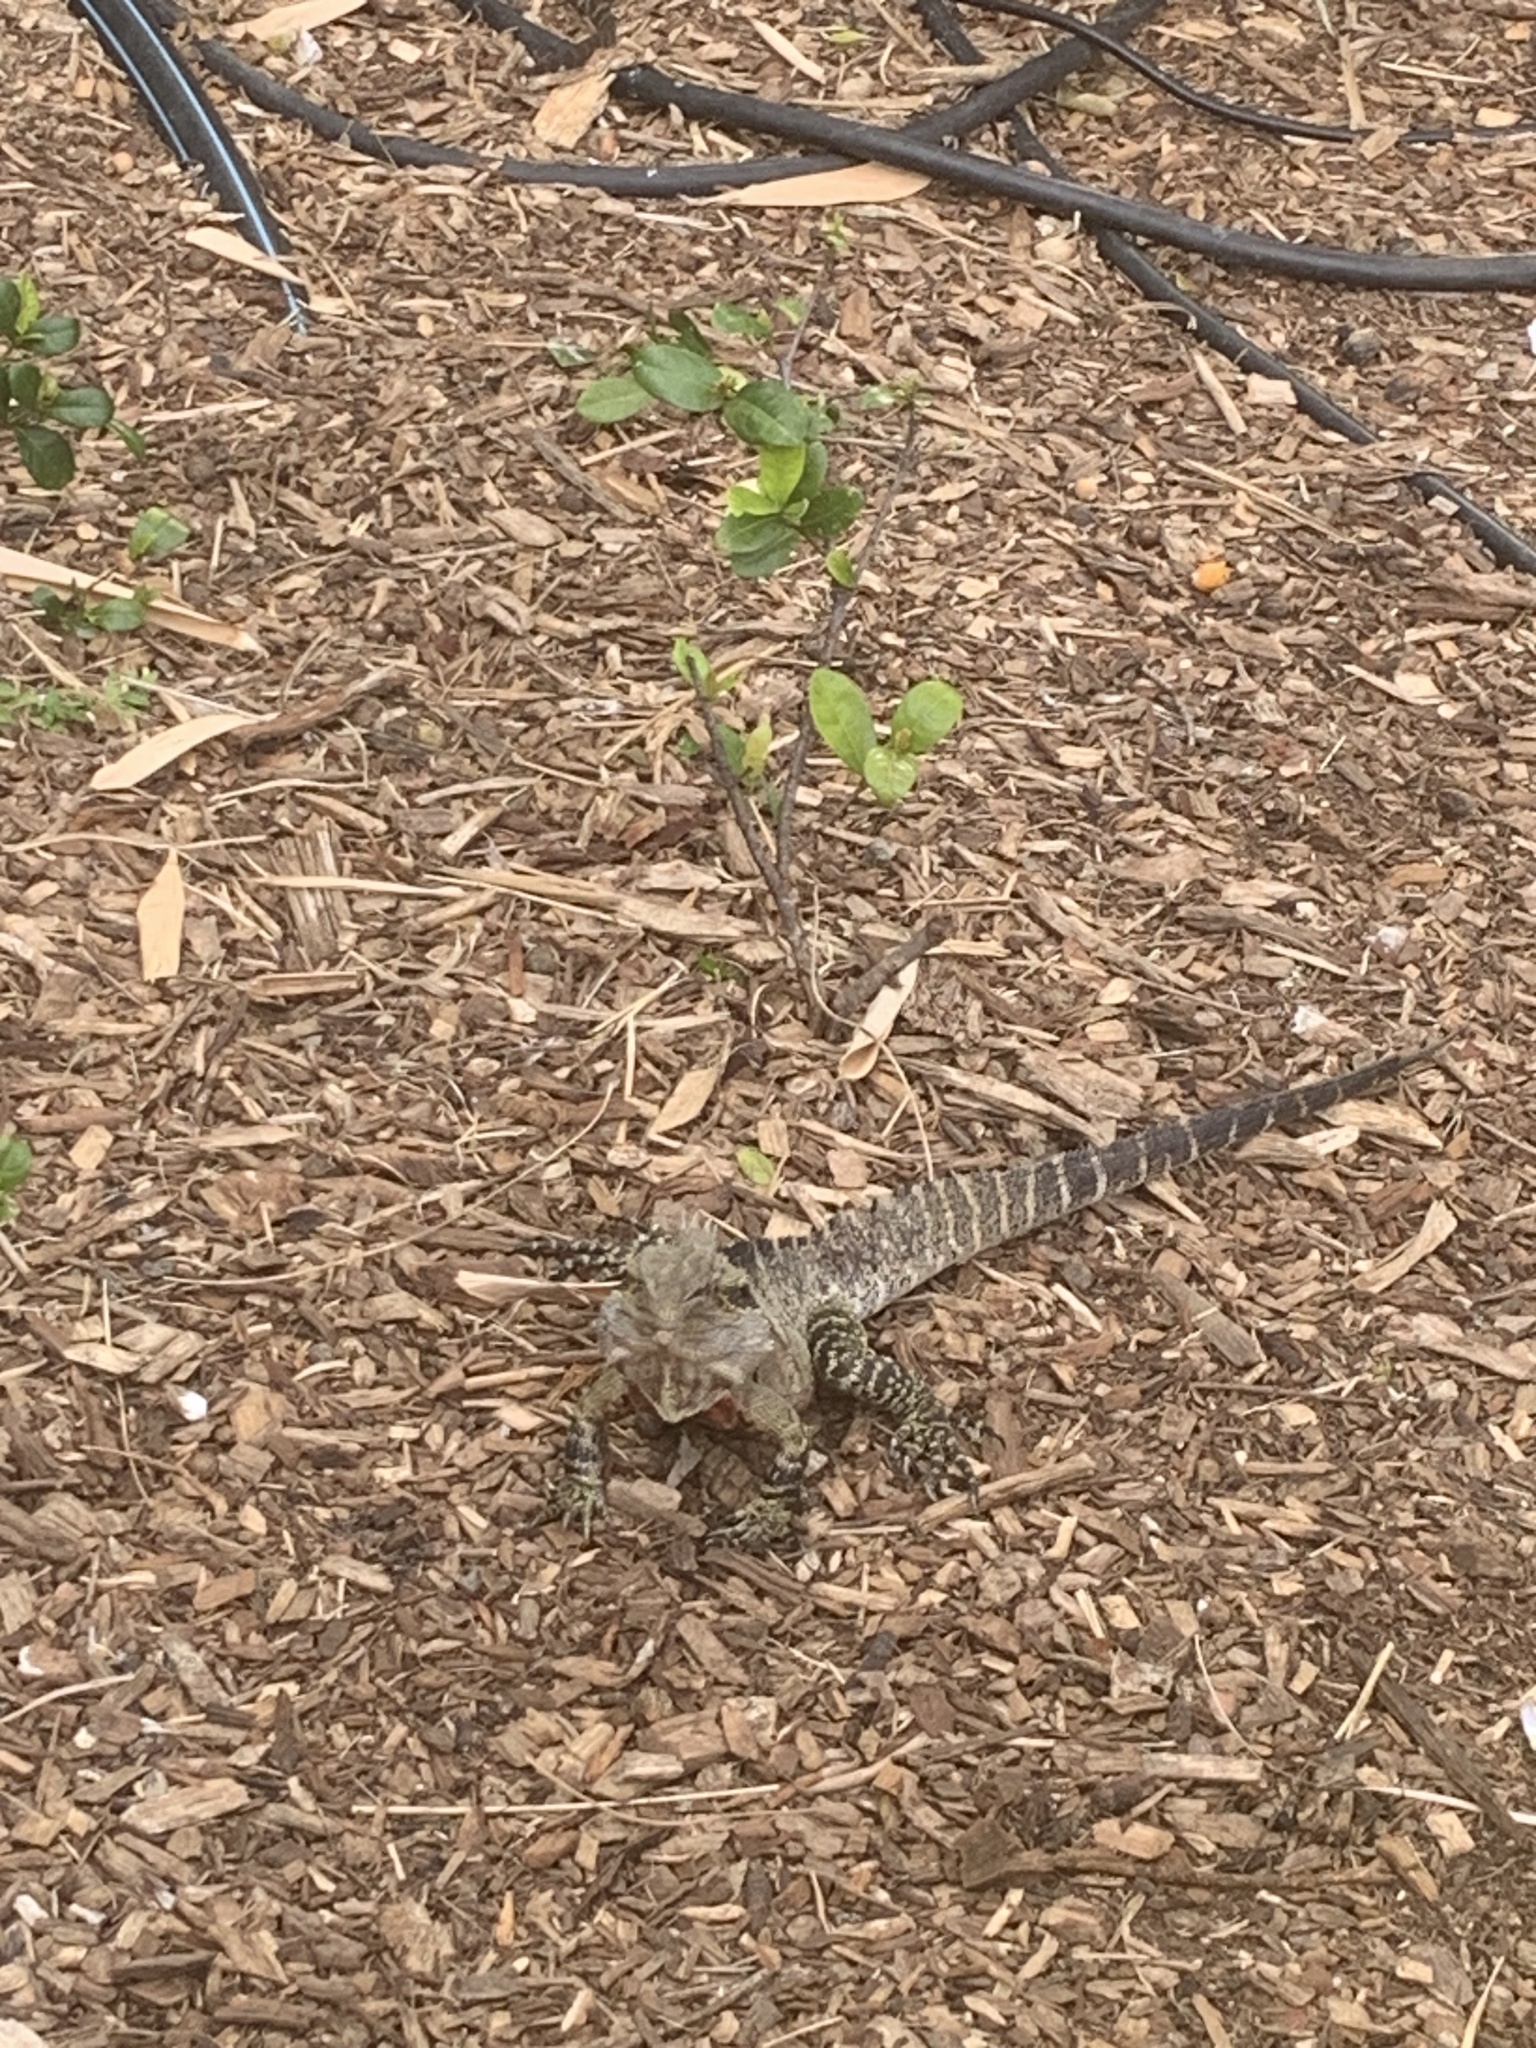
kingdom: Animalia
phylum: Chordata
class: Squamata
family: Agamidae
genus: Intellagama
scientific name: Intellagama lesueurii
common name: Eastern water dragon
